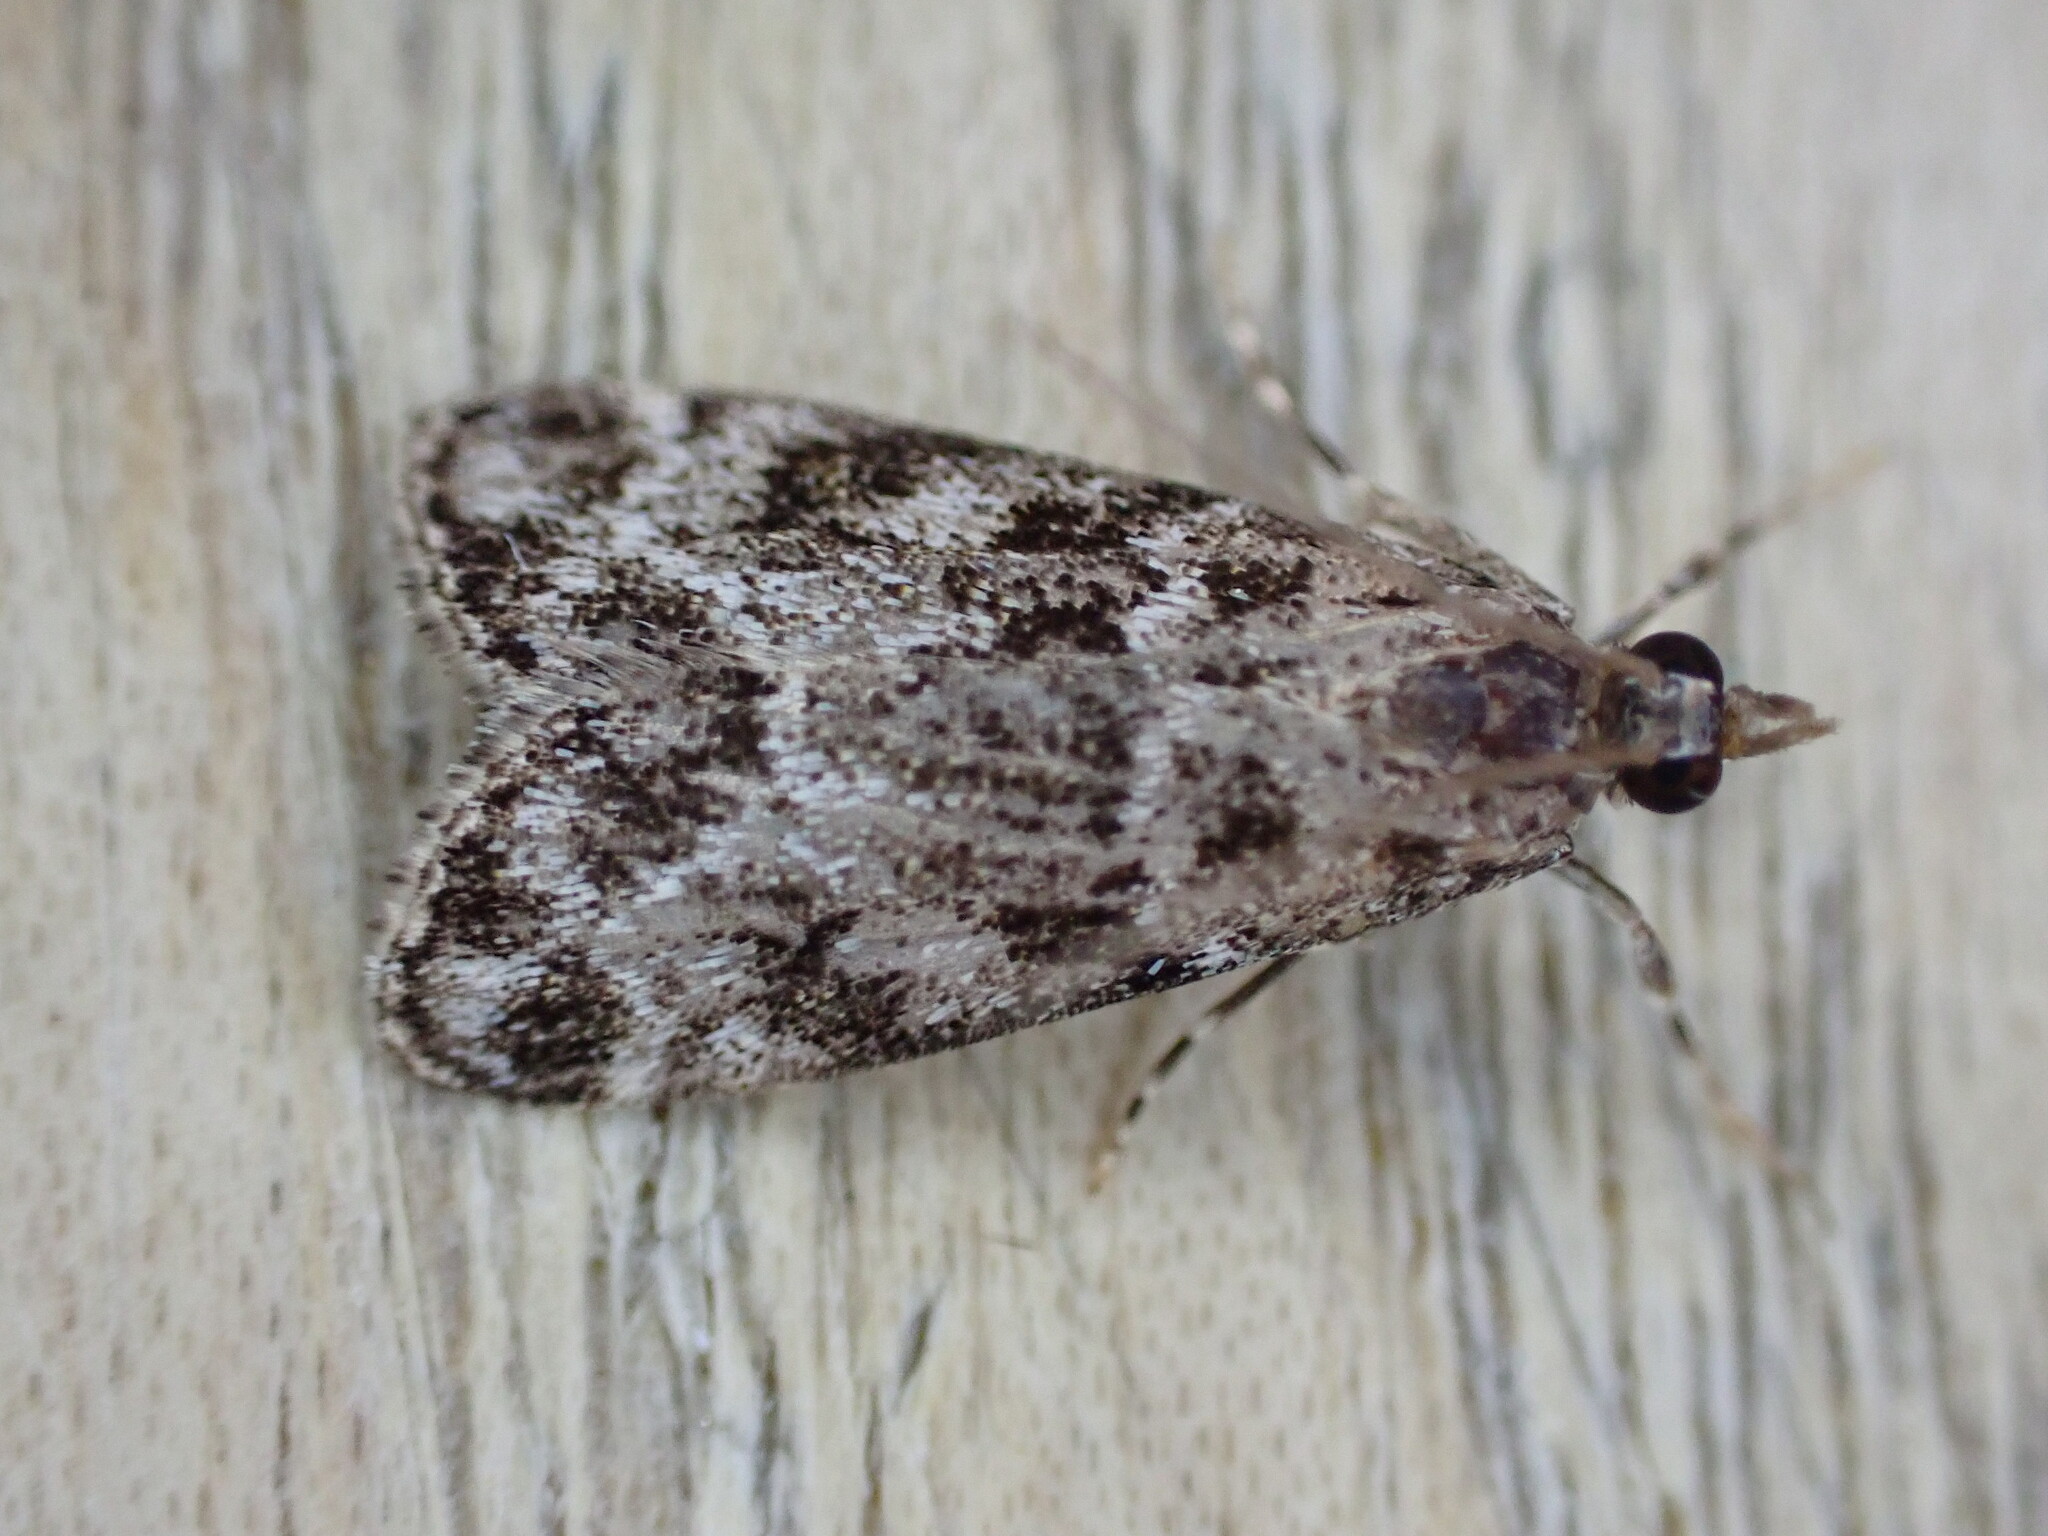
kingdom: Animalia
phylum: Arthropoda
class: Insecta
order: Lepidoptera
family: Crambidae
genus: Eudonia
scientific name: Eudonia mercurella
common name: Small grey
